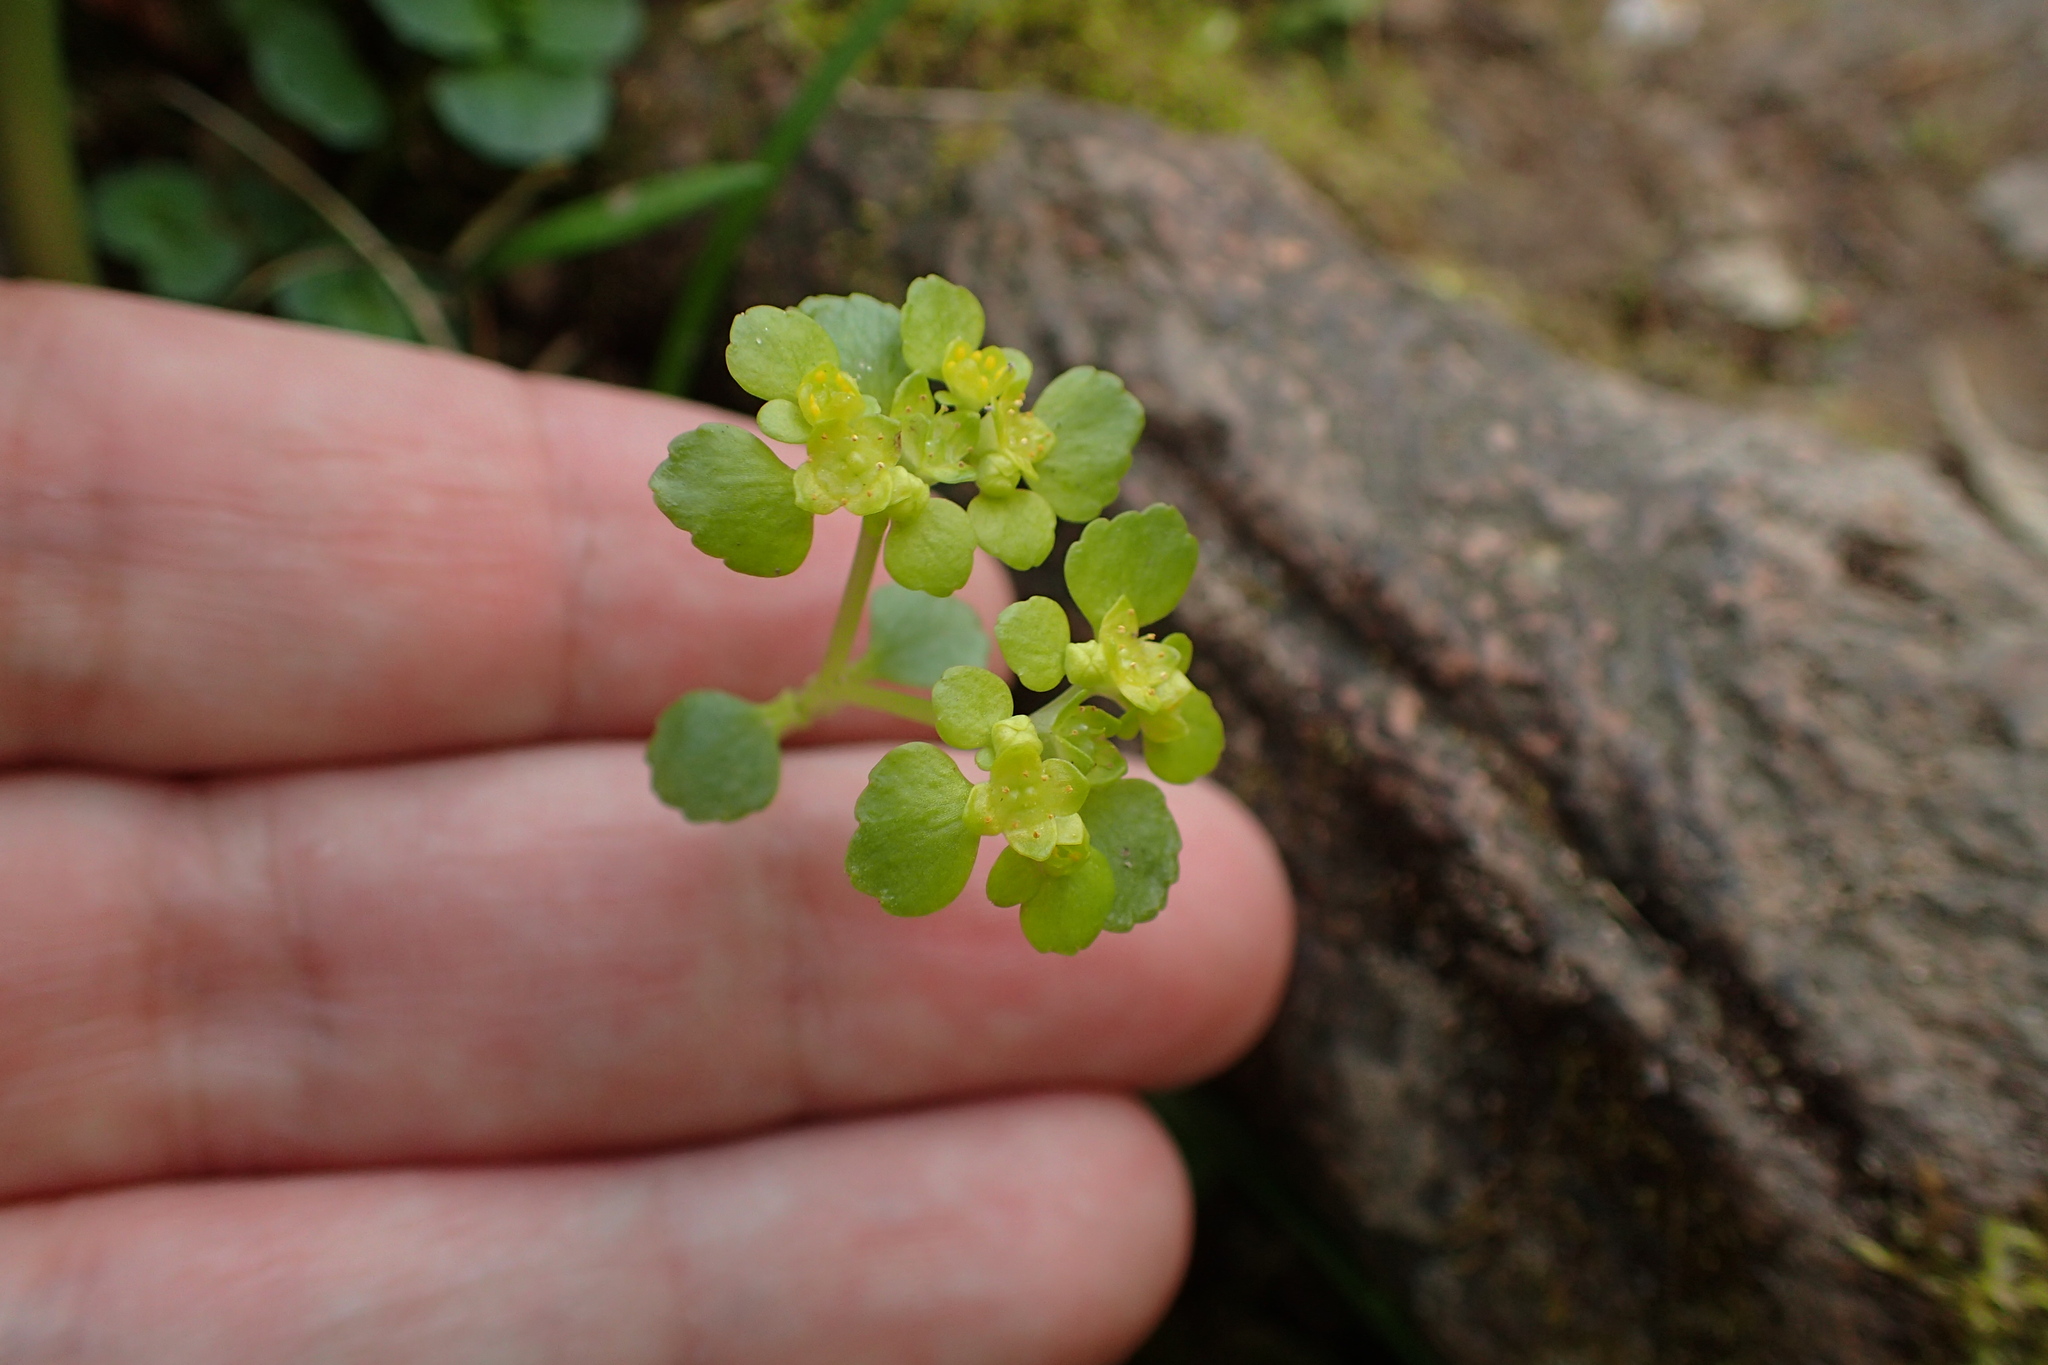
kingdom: Plantae
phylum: Tracheophyta
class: Magnoliopsida
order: Saxifragales
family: Saxifragaceae
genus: Chrysosplenium
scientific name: Chrysosplenium oppositifolium
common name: Opposite-leaved golden-saxifrage
